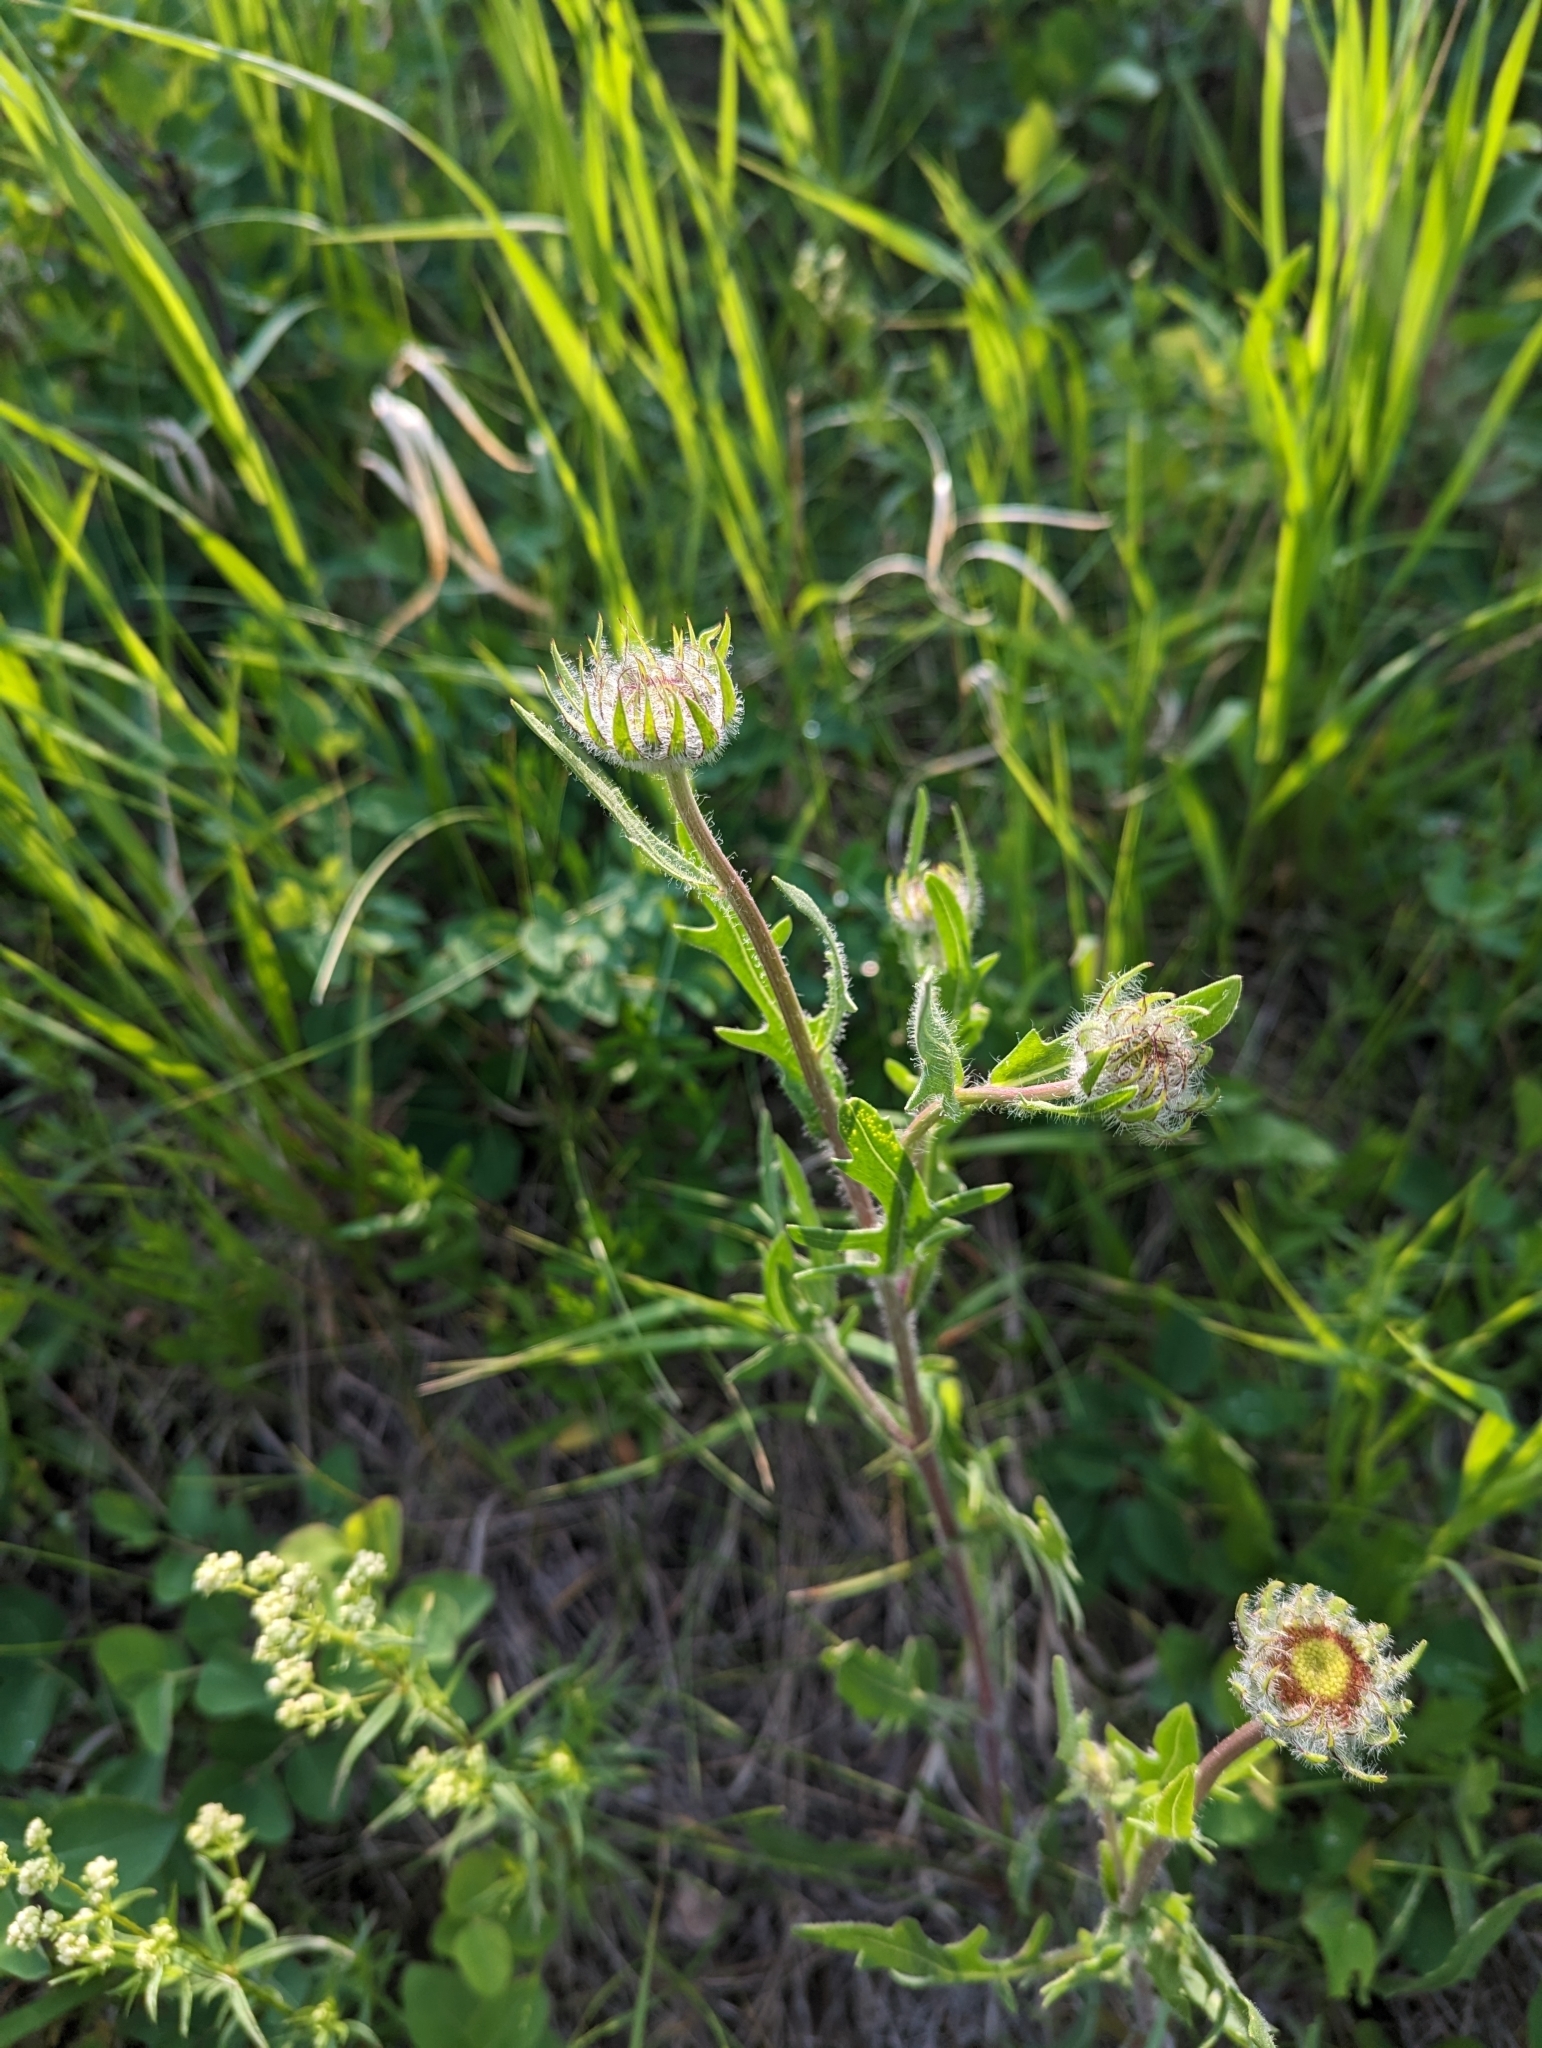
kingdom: Plantae
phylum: Tracheophyta
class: Magnoliopsida
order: Asterales
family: Asteraceae
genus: Gaillardia
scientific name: Gaillardia aristata
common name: Blanket-flower
